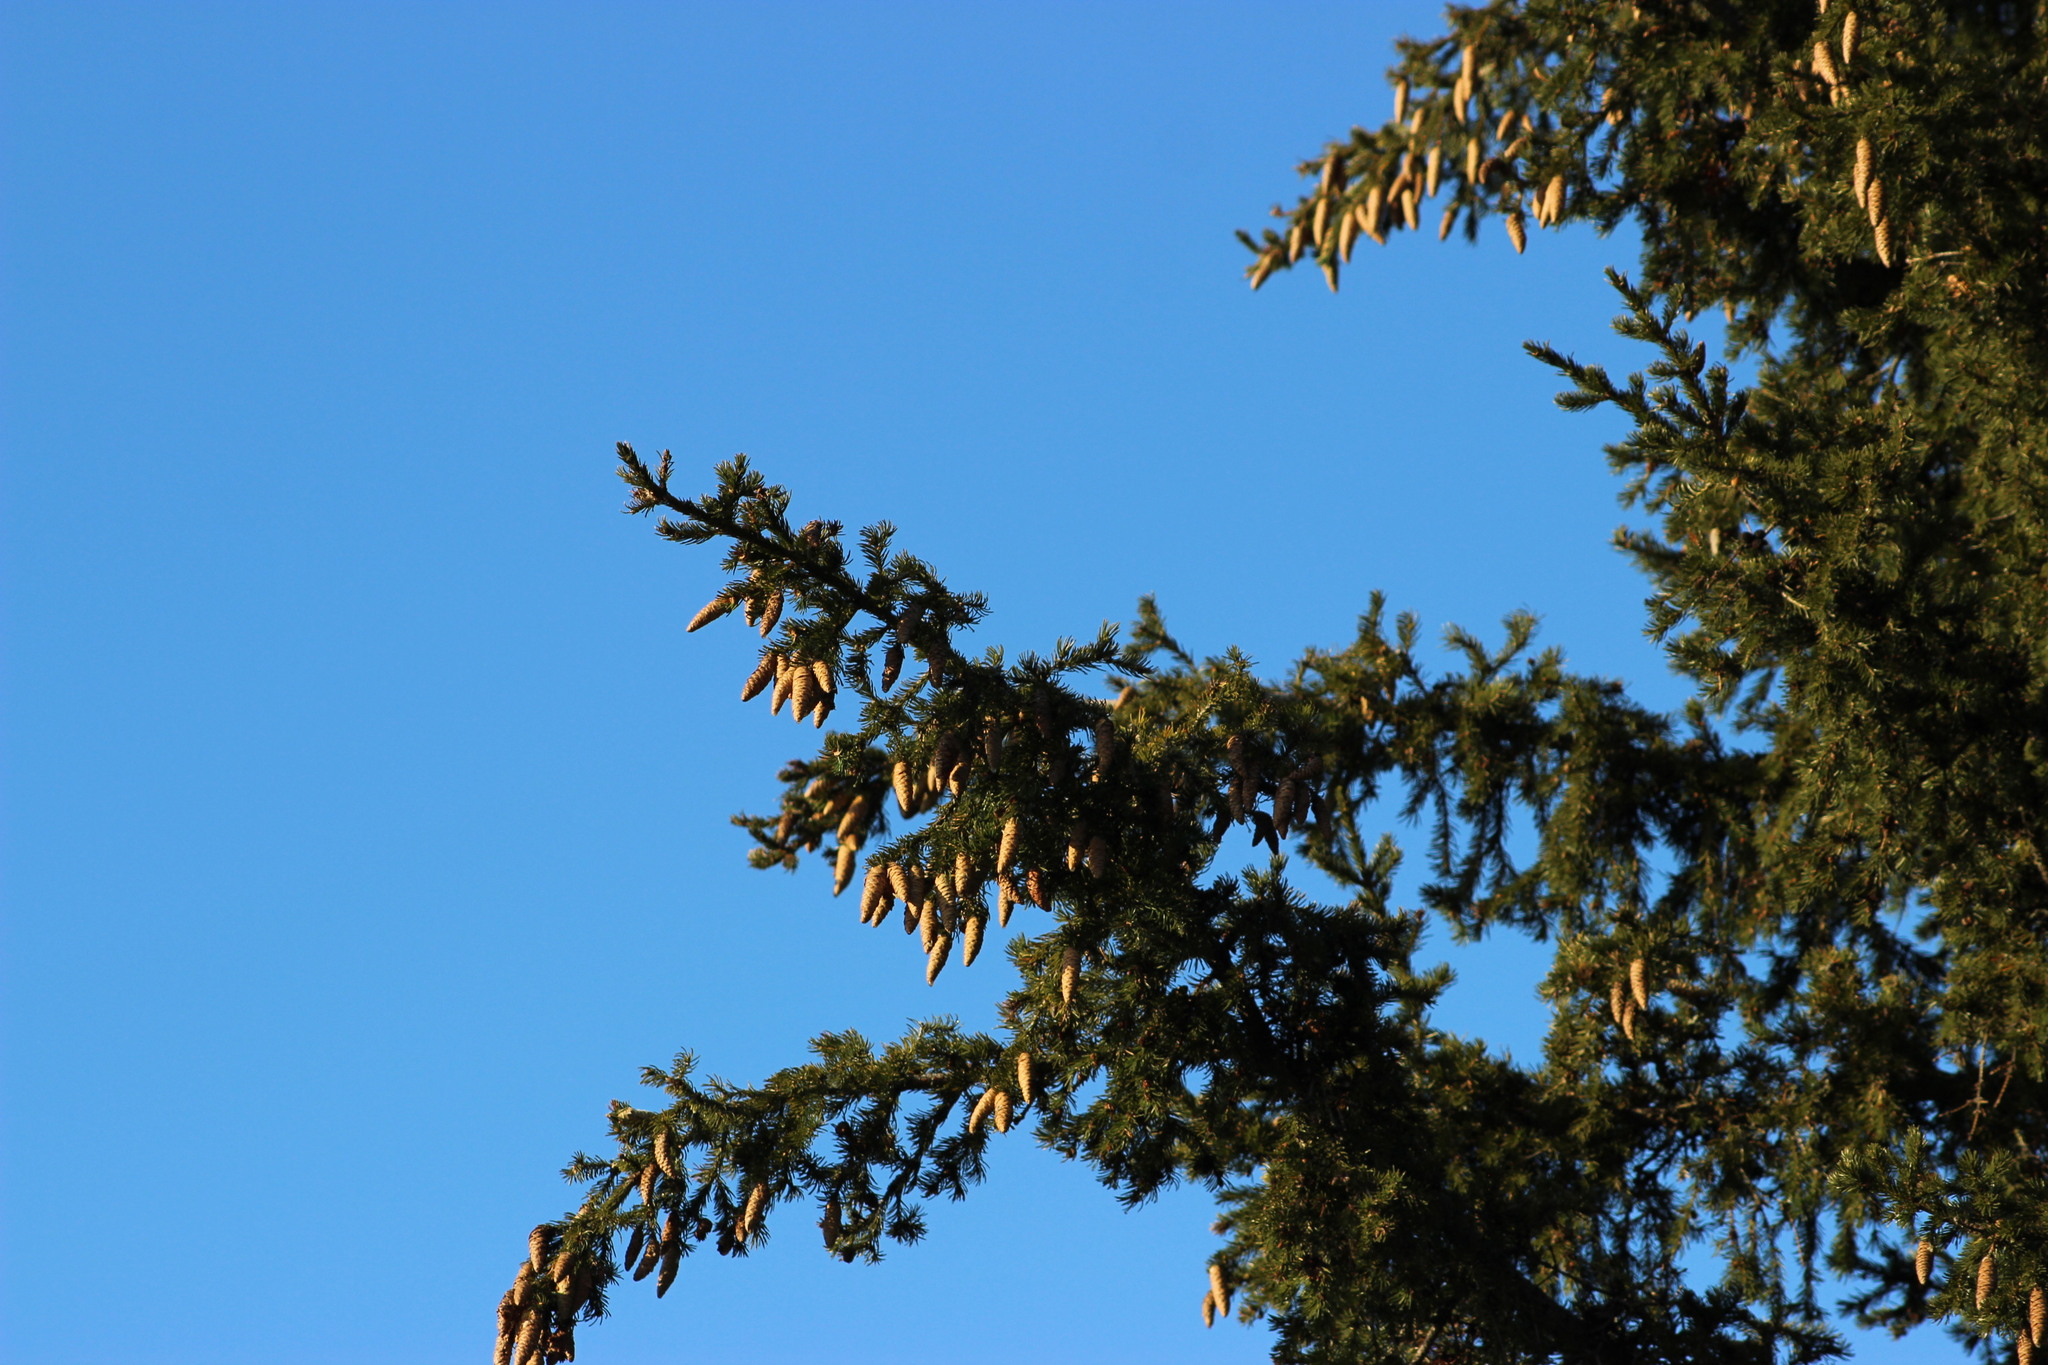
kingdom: Plantae
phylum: Tracheophyta
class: Pinopsida
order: Pinales
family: Pinaceae
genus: Picea
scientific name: Picea obovata
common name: Siberian spruce
